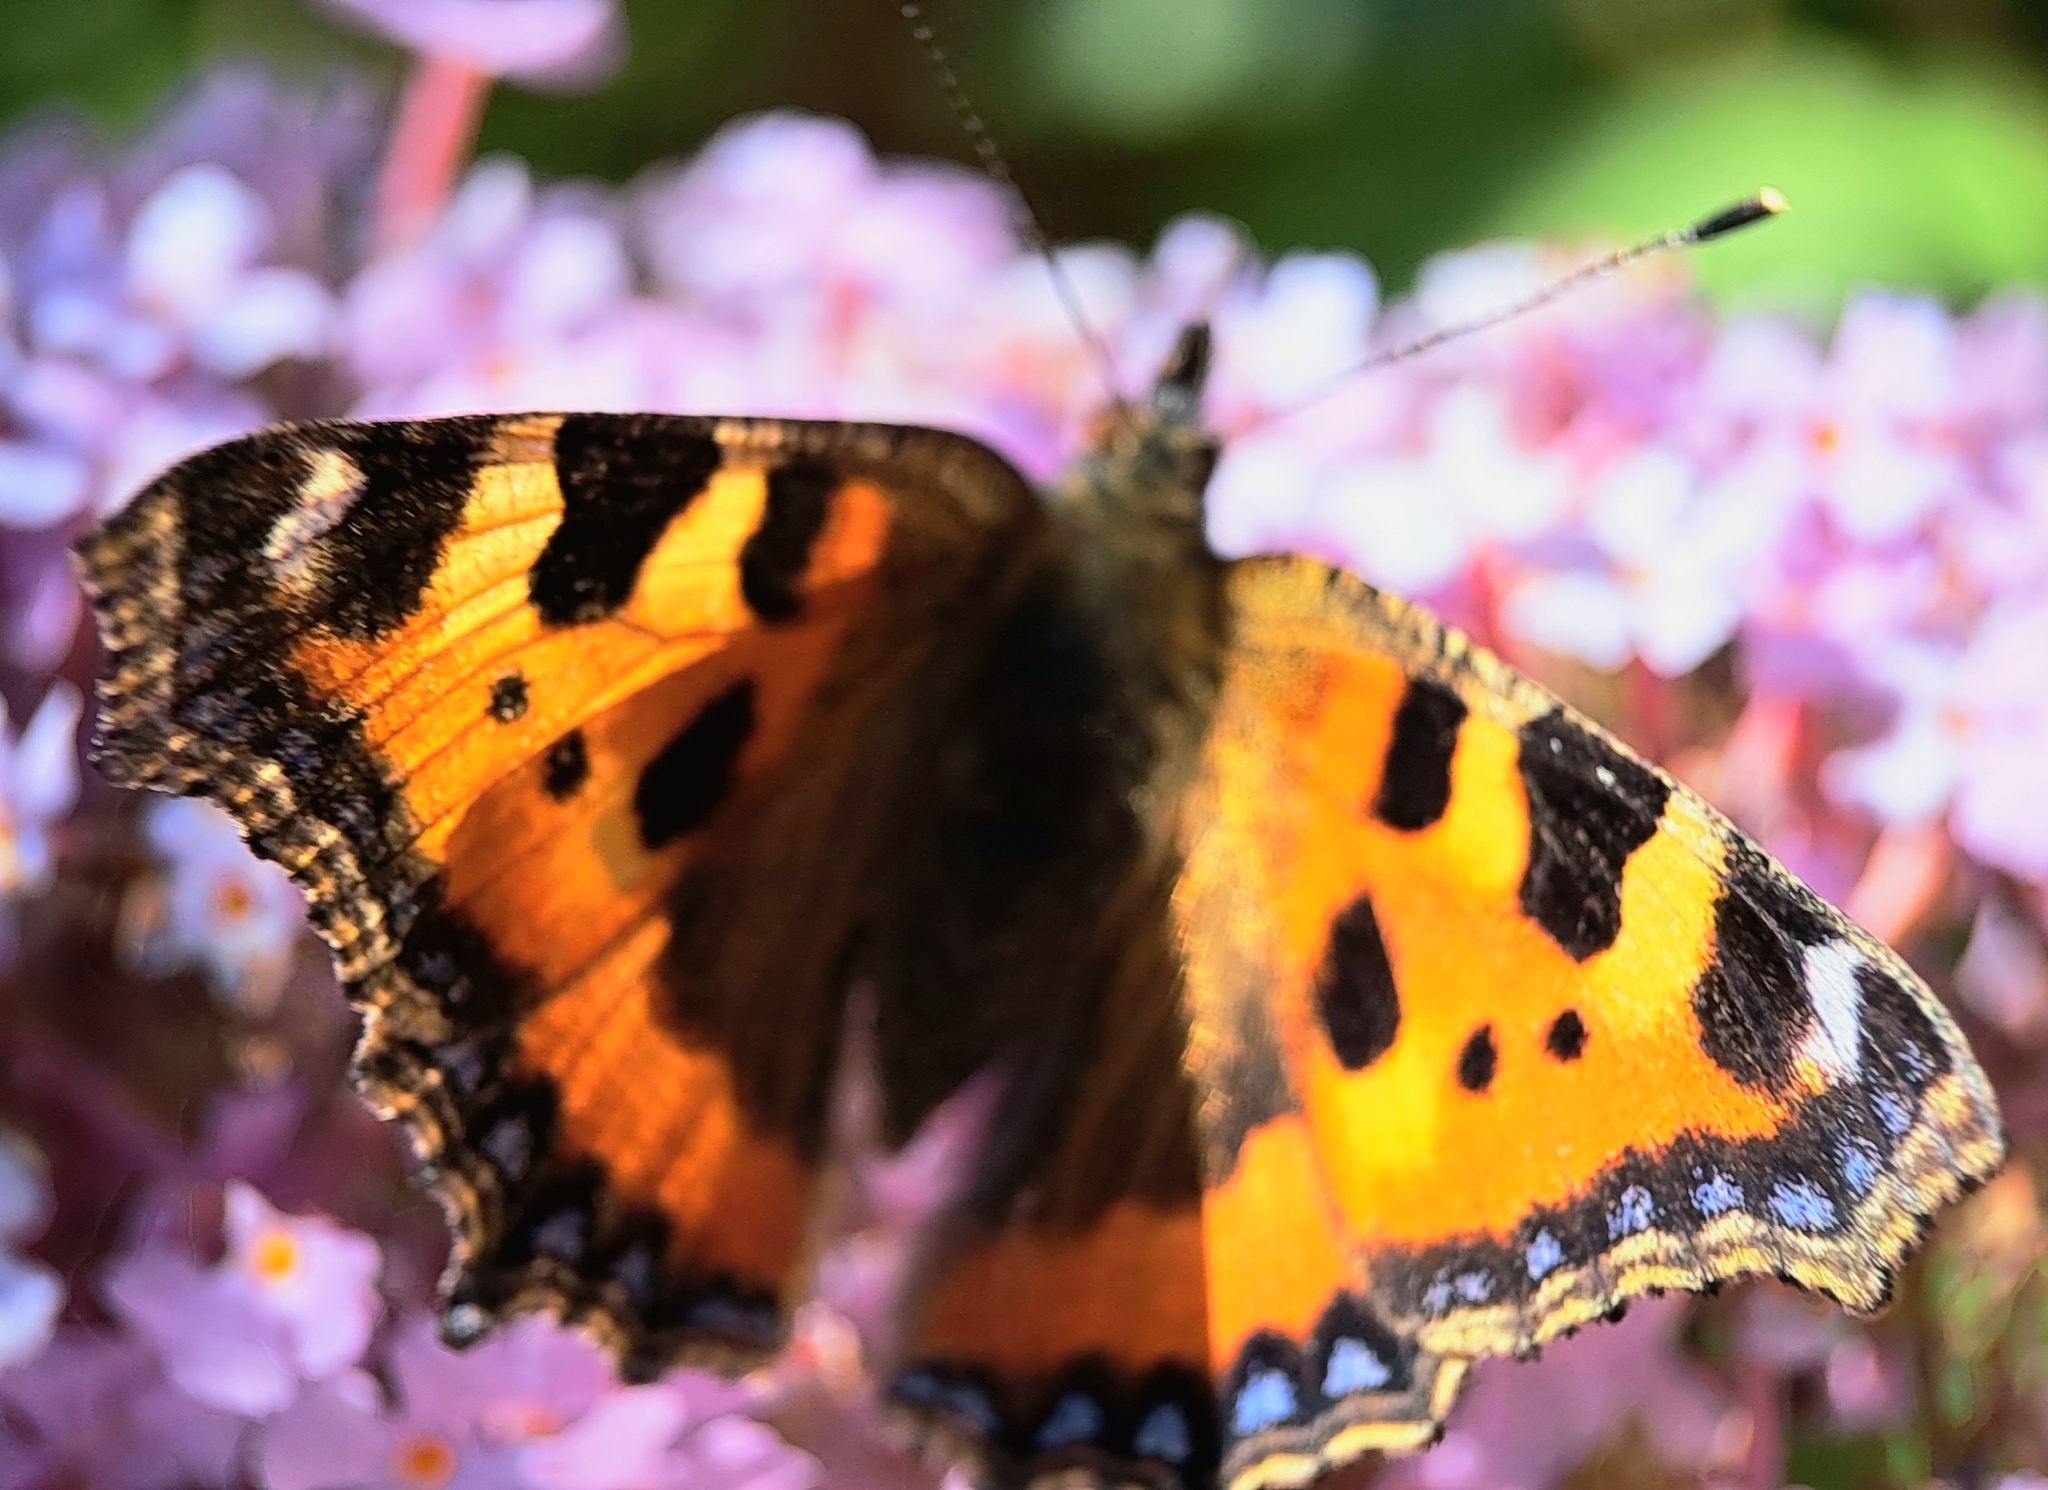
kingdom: Animalia
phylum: Arthropoda
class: Insecta
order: Lepidoptera
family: Nymphalidae
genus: Aglais
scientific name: Aglais urticae
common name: Small tortoiseshell
